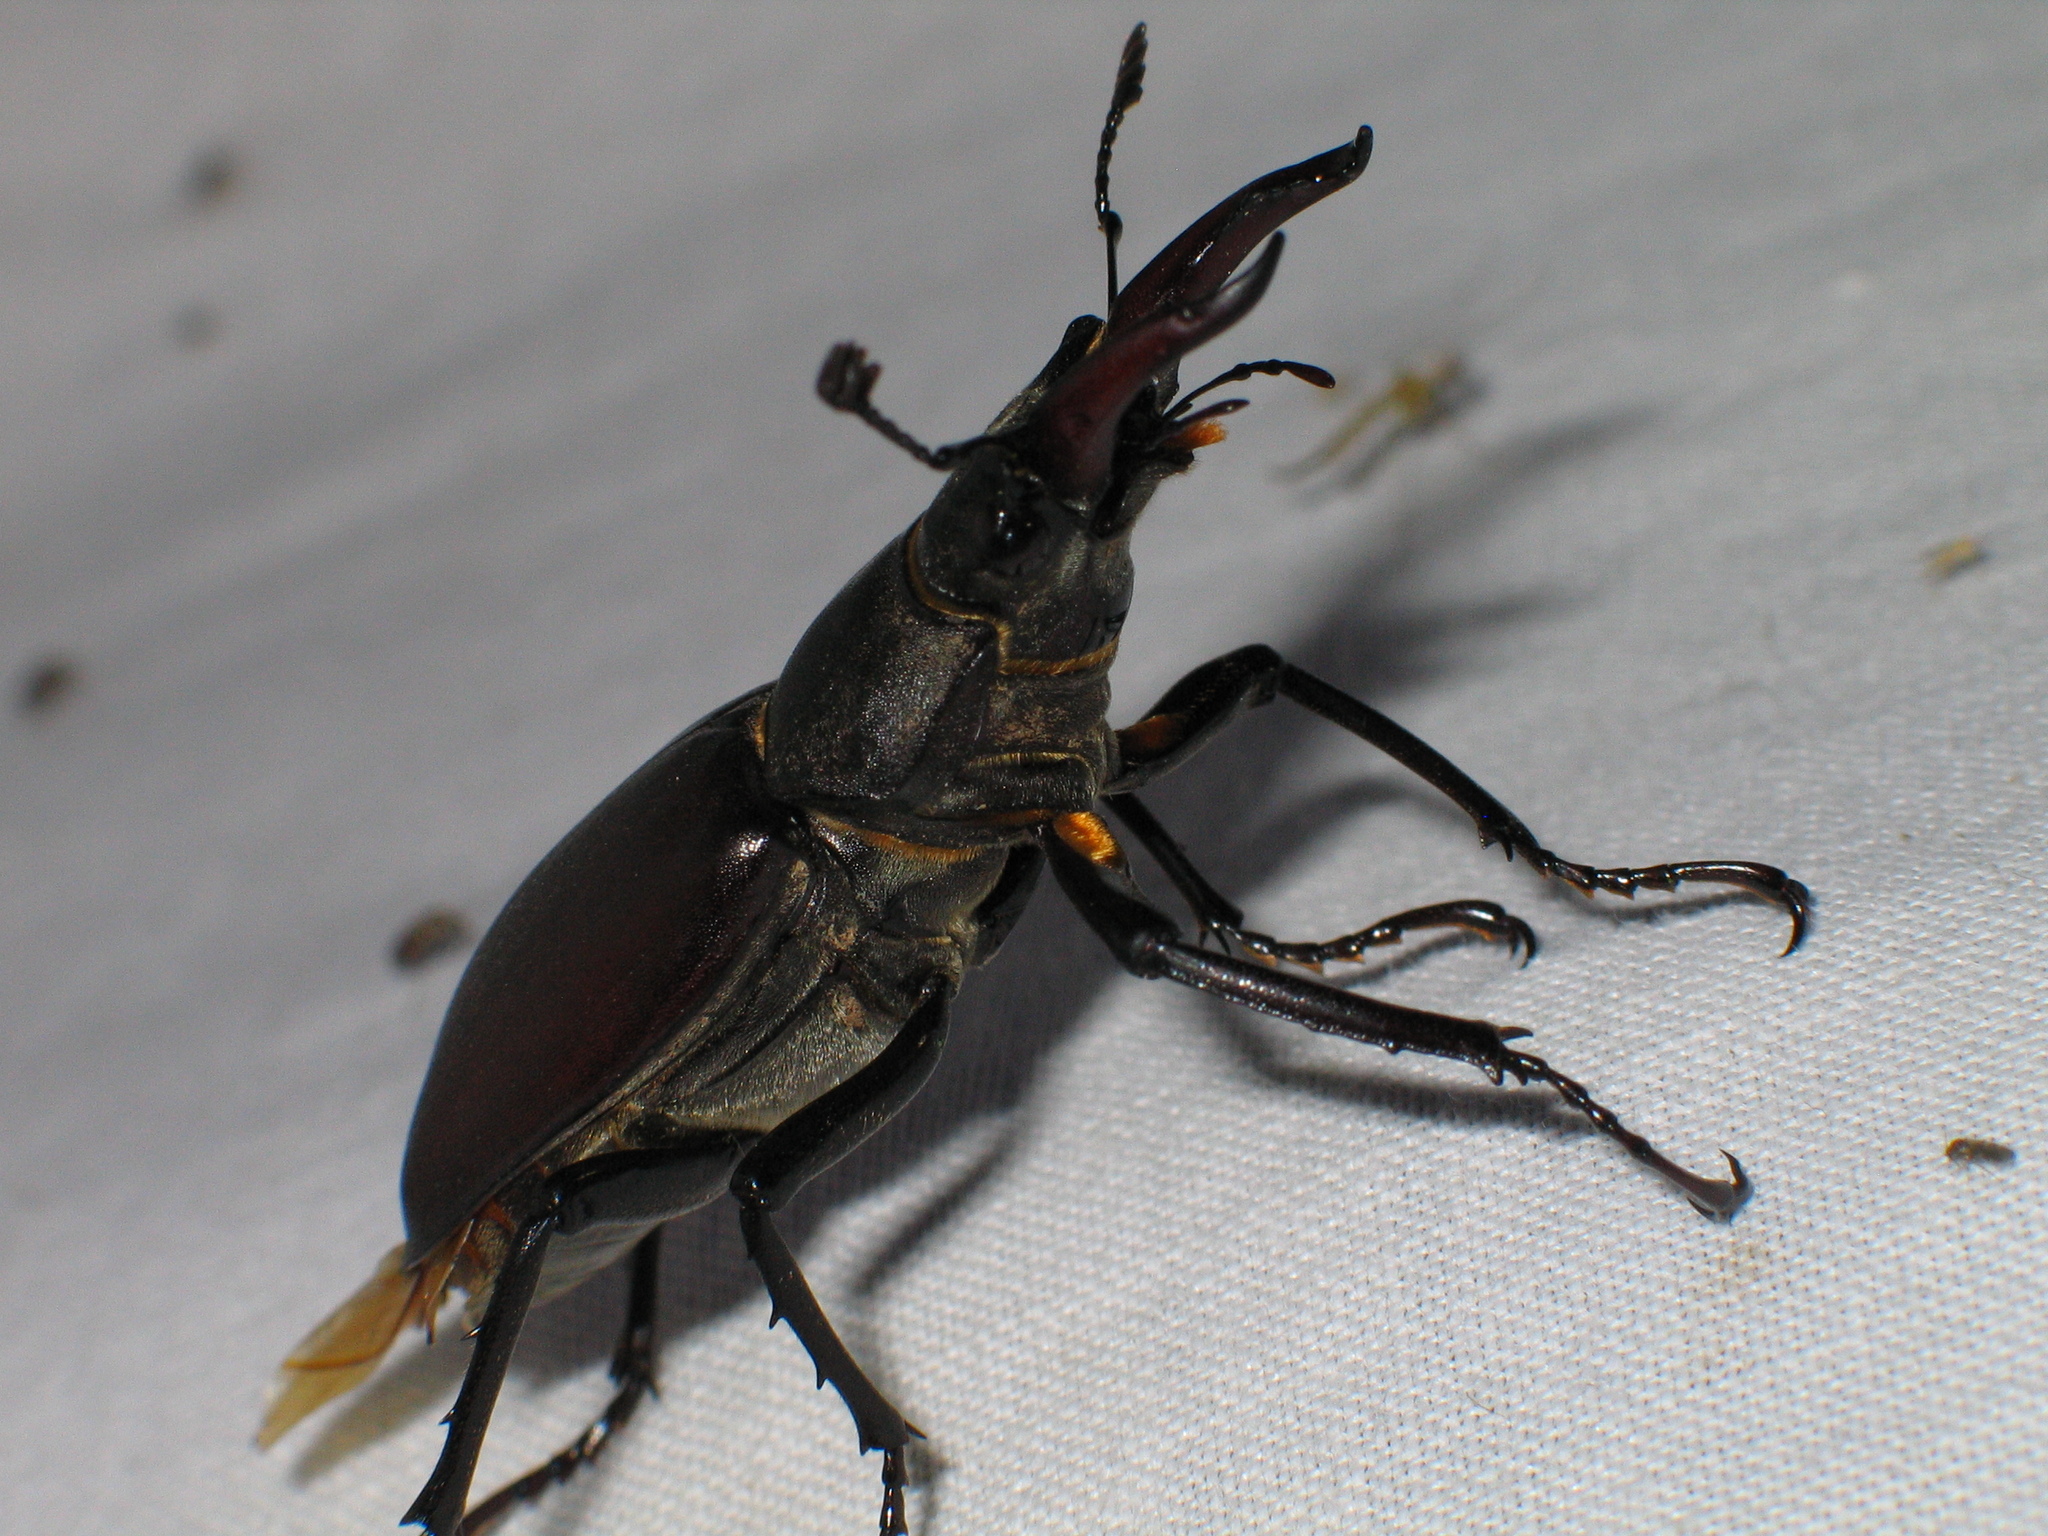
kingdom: Animalia
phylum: Arthropoda
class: Insecta
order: Coleoptera
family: Lucanidae
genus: Lucanus
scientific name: Lucanus cervus
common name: Stag beetle
